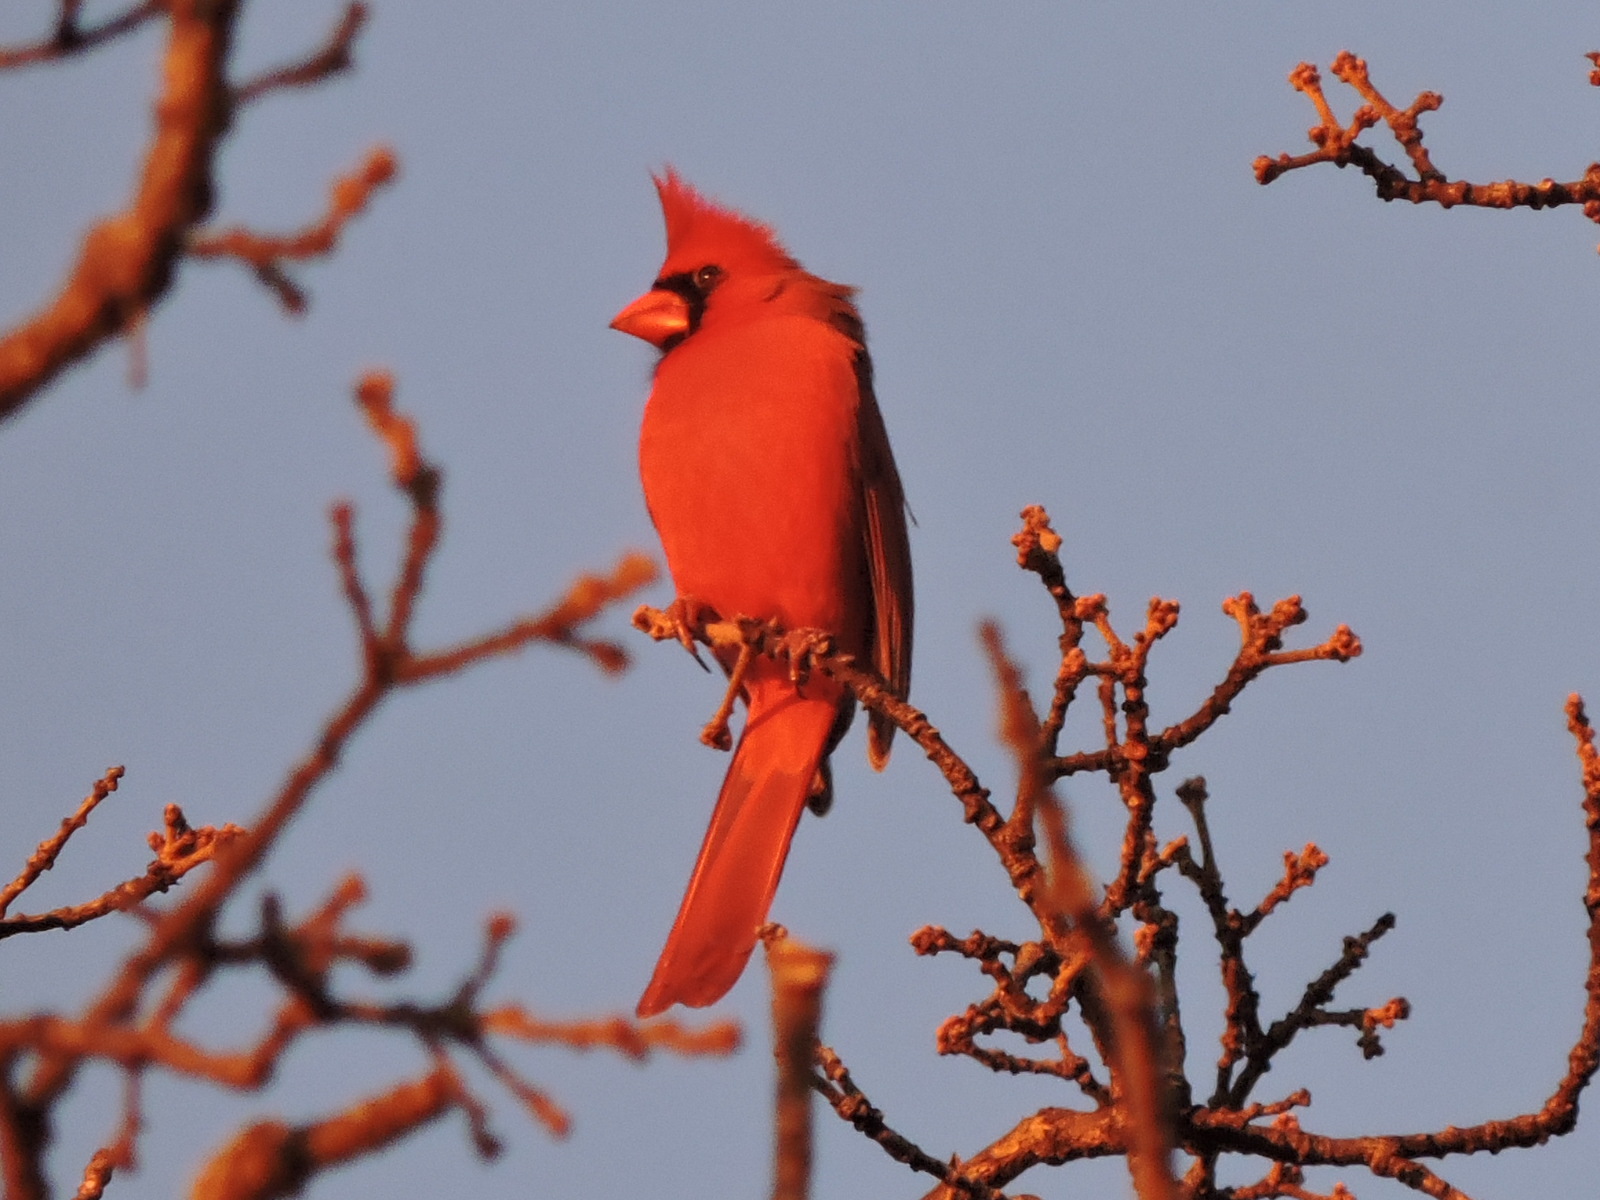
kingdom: Animalia
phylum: Chordata
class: Aves
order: Passeriformes
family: Cardinalidae
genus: Cardinalis
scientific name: Cardinalis cardinalis
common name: Northern cardinal
